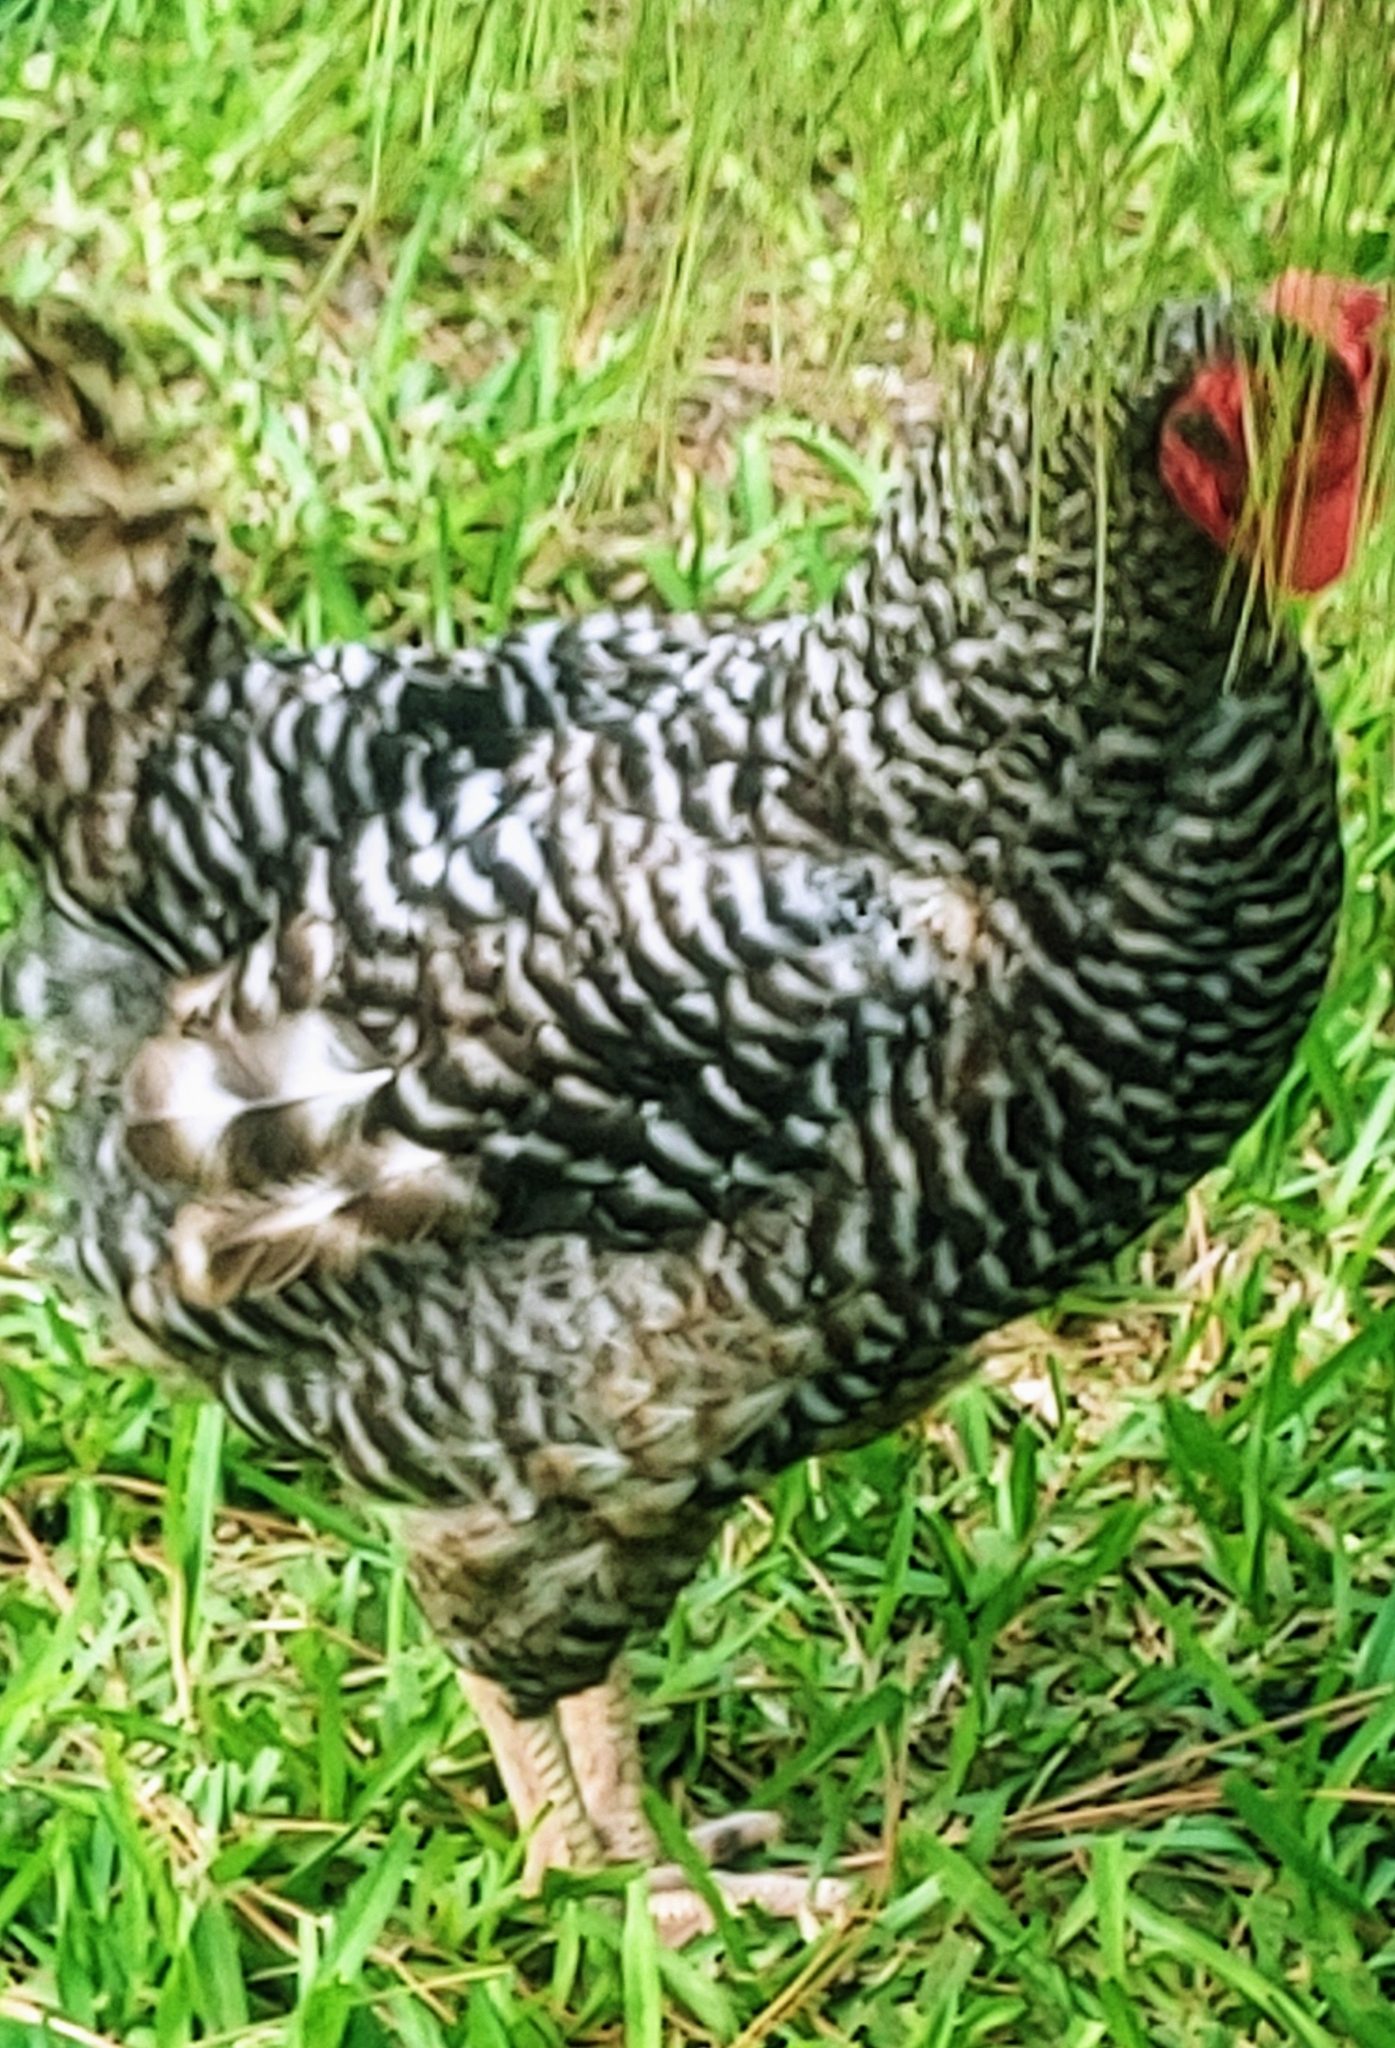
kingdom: Animalia
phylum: Chordata
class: Aves
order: Galliformes
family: Phasianidae
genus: Gallus
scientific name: Gallus gallus
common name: Red junglefowl
